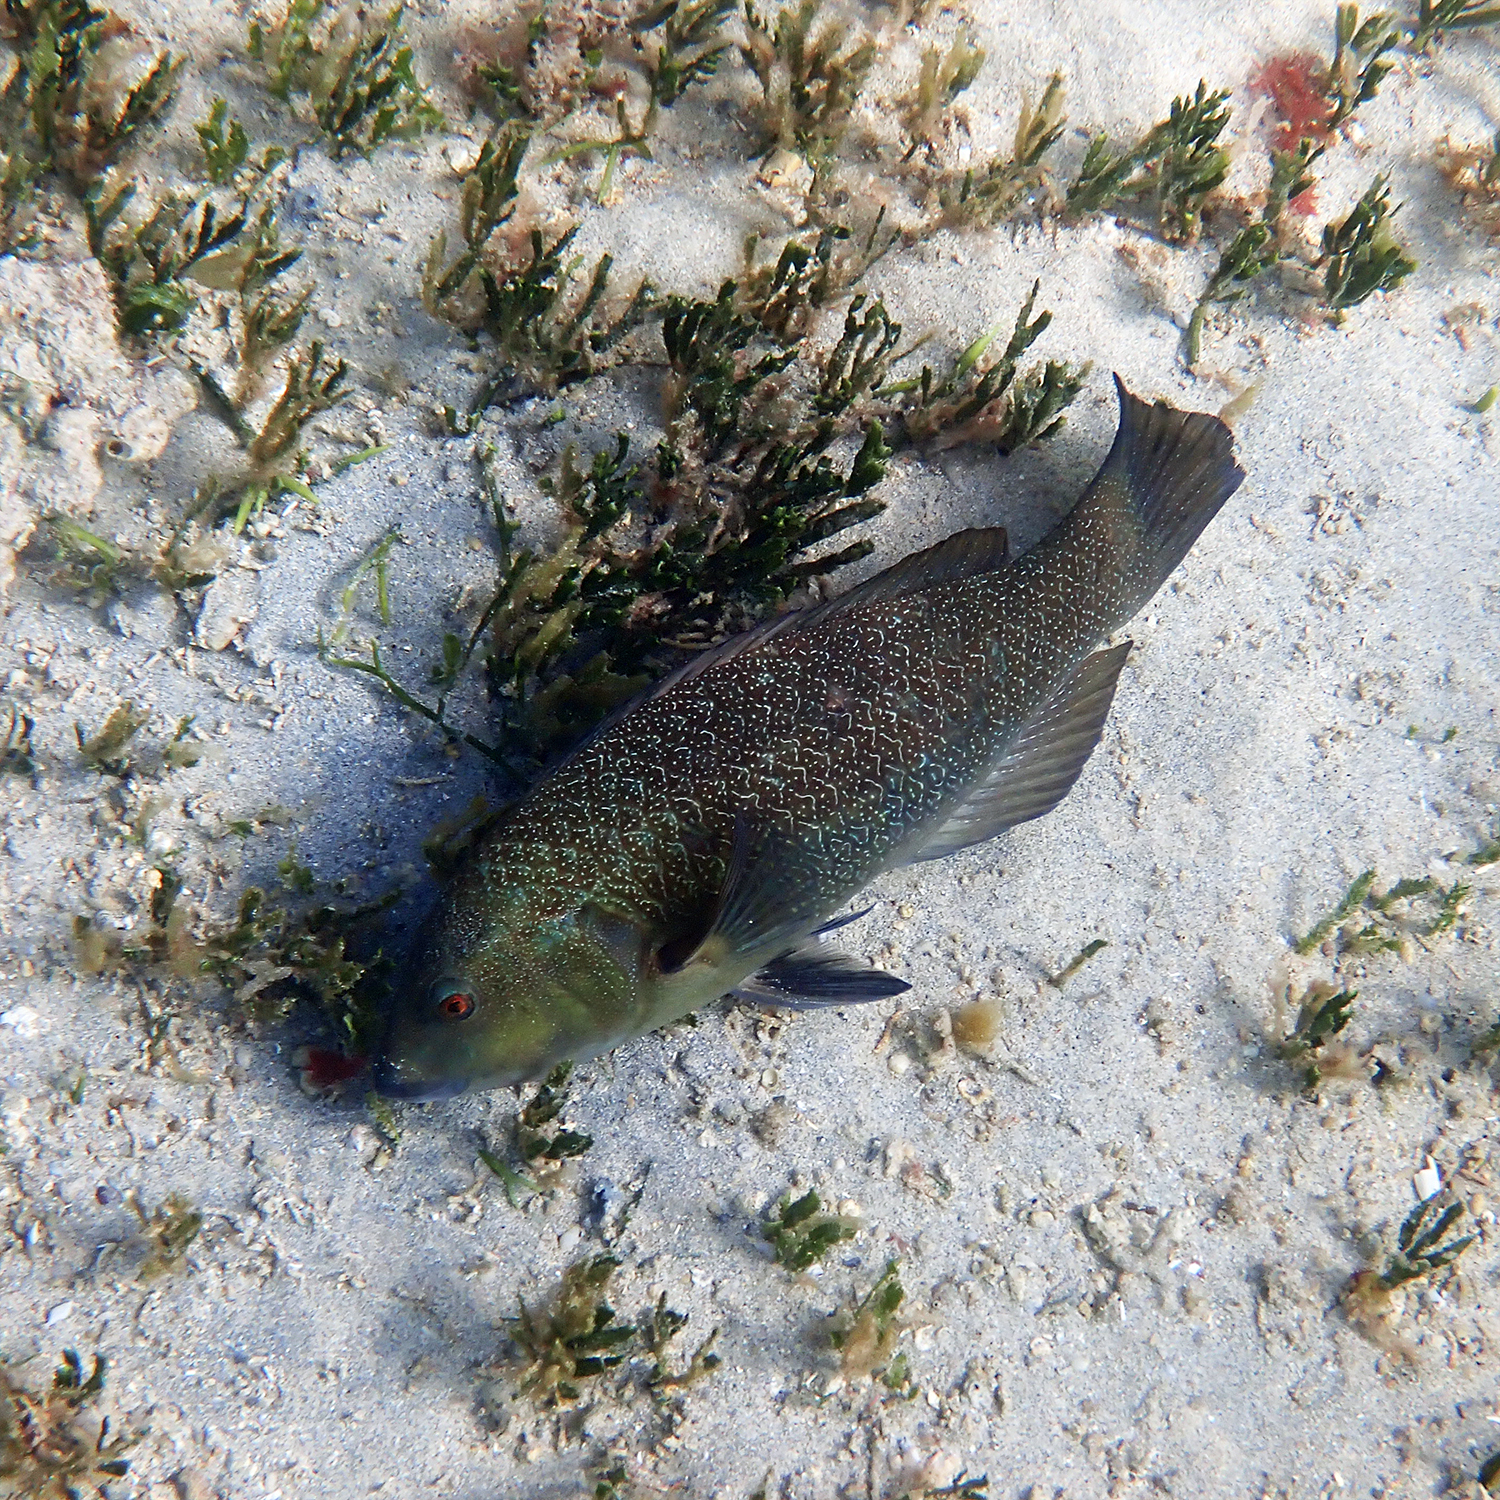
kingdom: Animalia
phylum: Chordata
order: Perciformes
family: Labridae
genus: Notolabrus
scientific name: Notolabrus inscriptus
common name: Green wrasse
